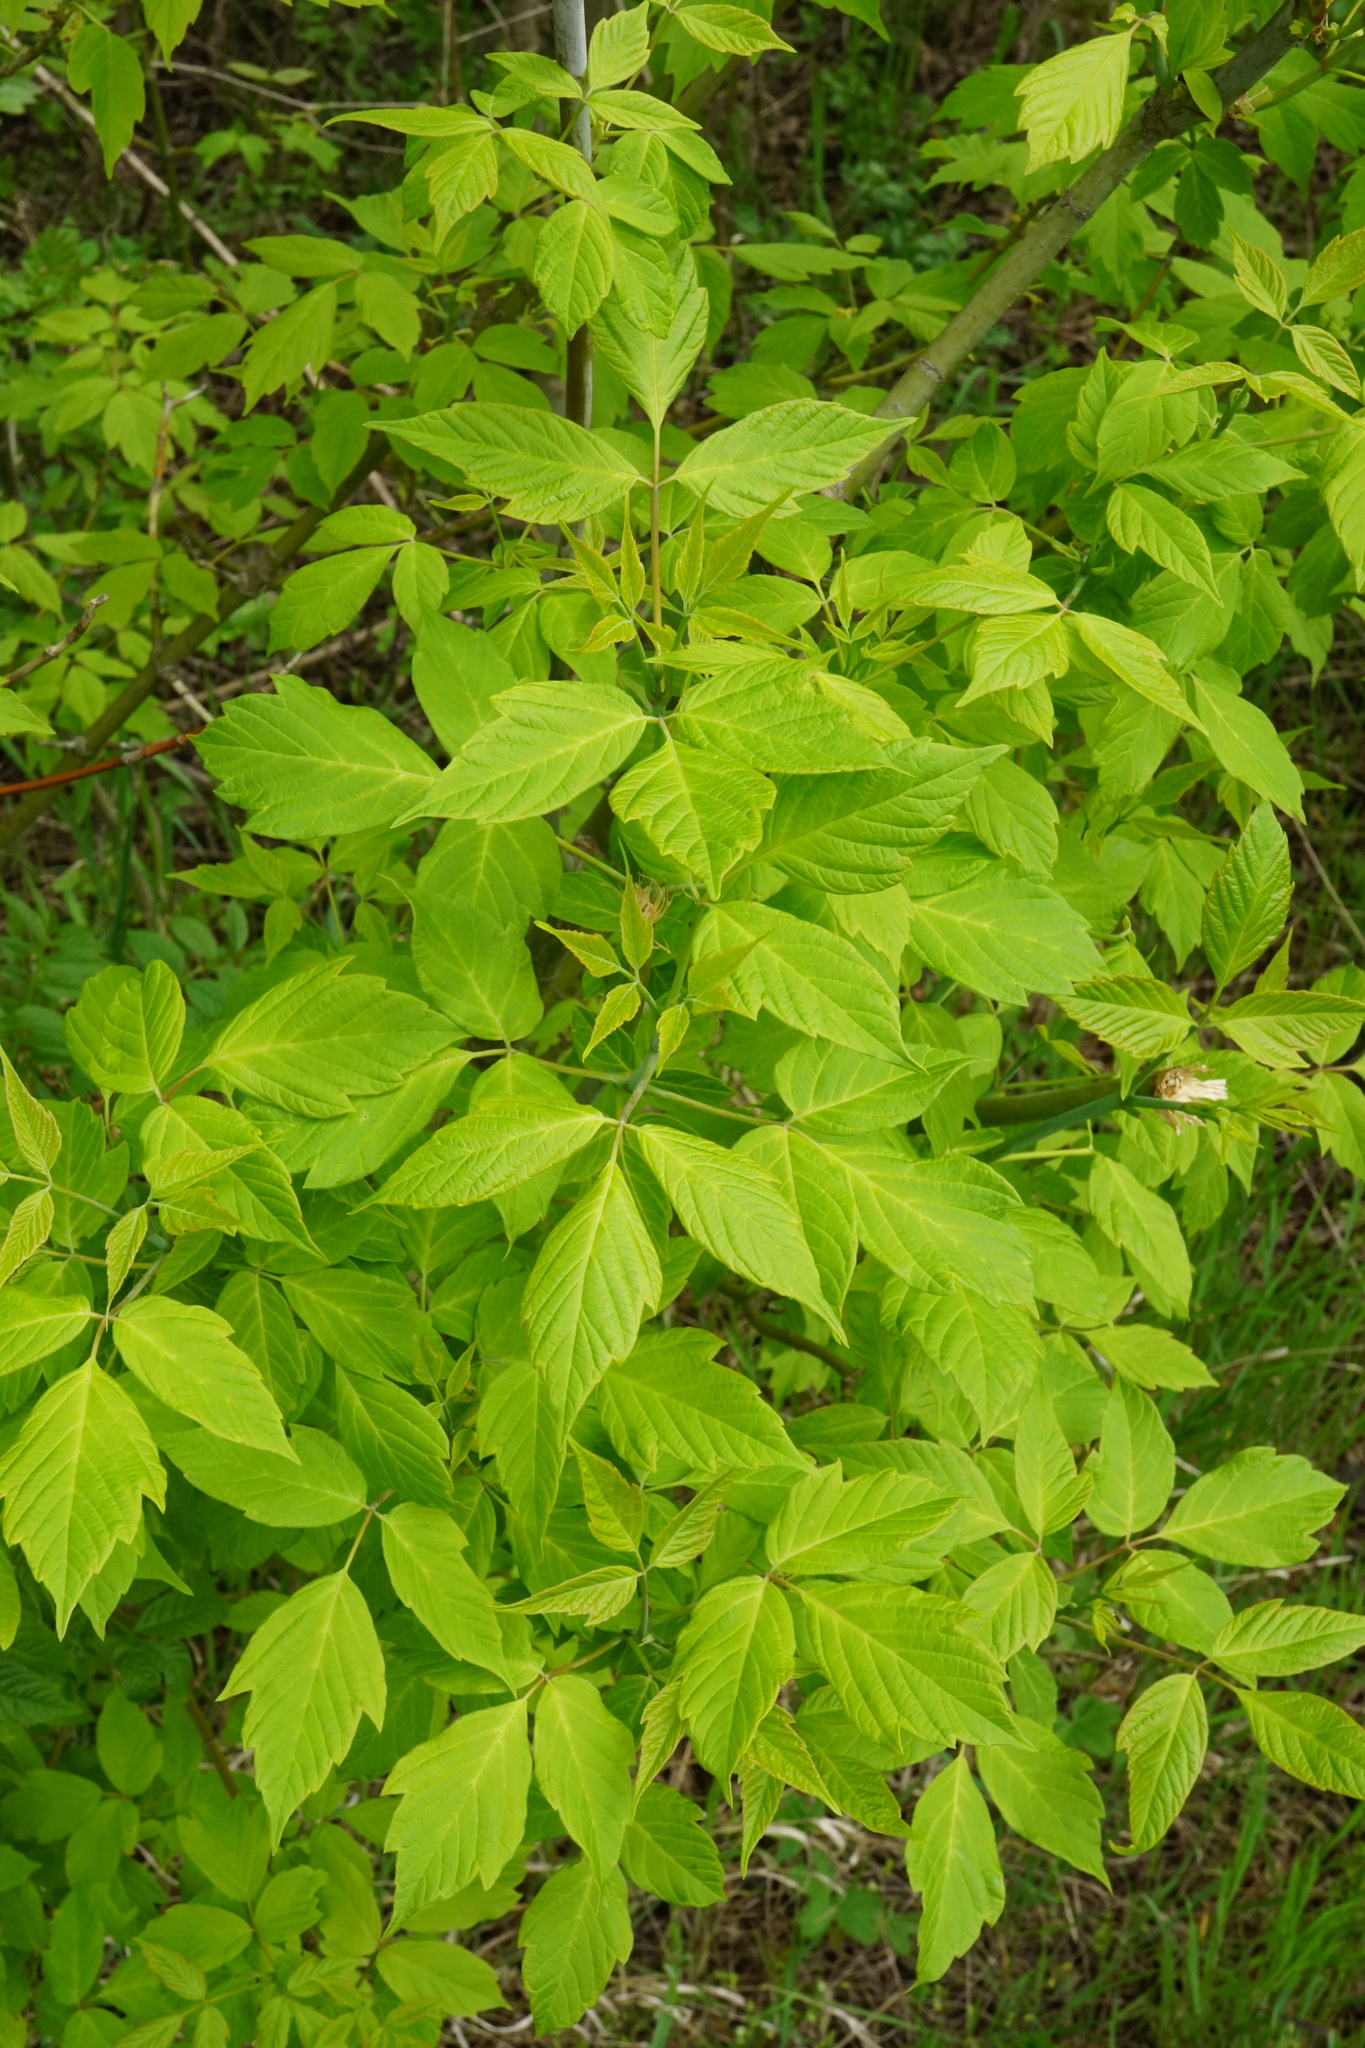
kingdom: Plantae
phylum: Tracheophyta
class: Magnoliopsida
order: Sapindales
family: Sapindaceae
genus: Acer
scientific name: Acer negundo
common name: Ashleaf maple
